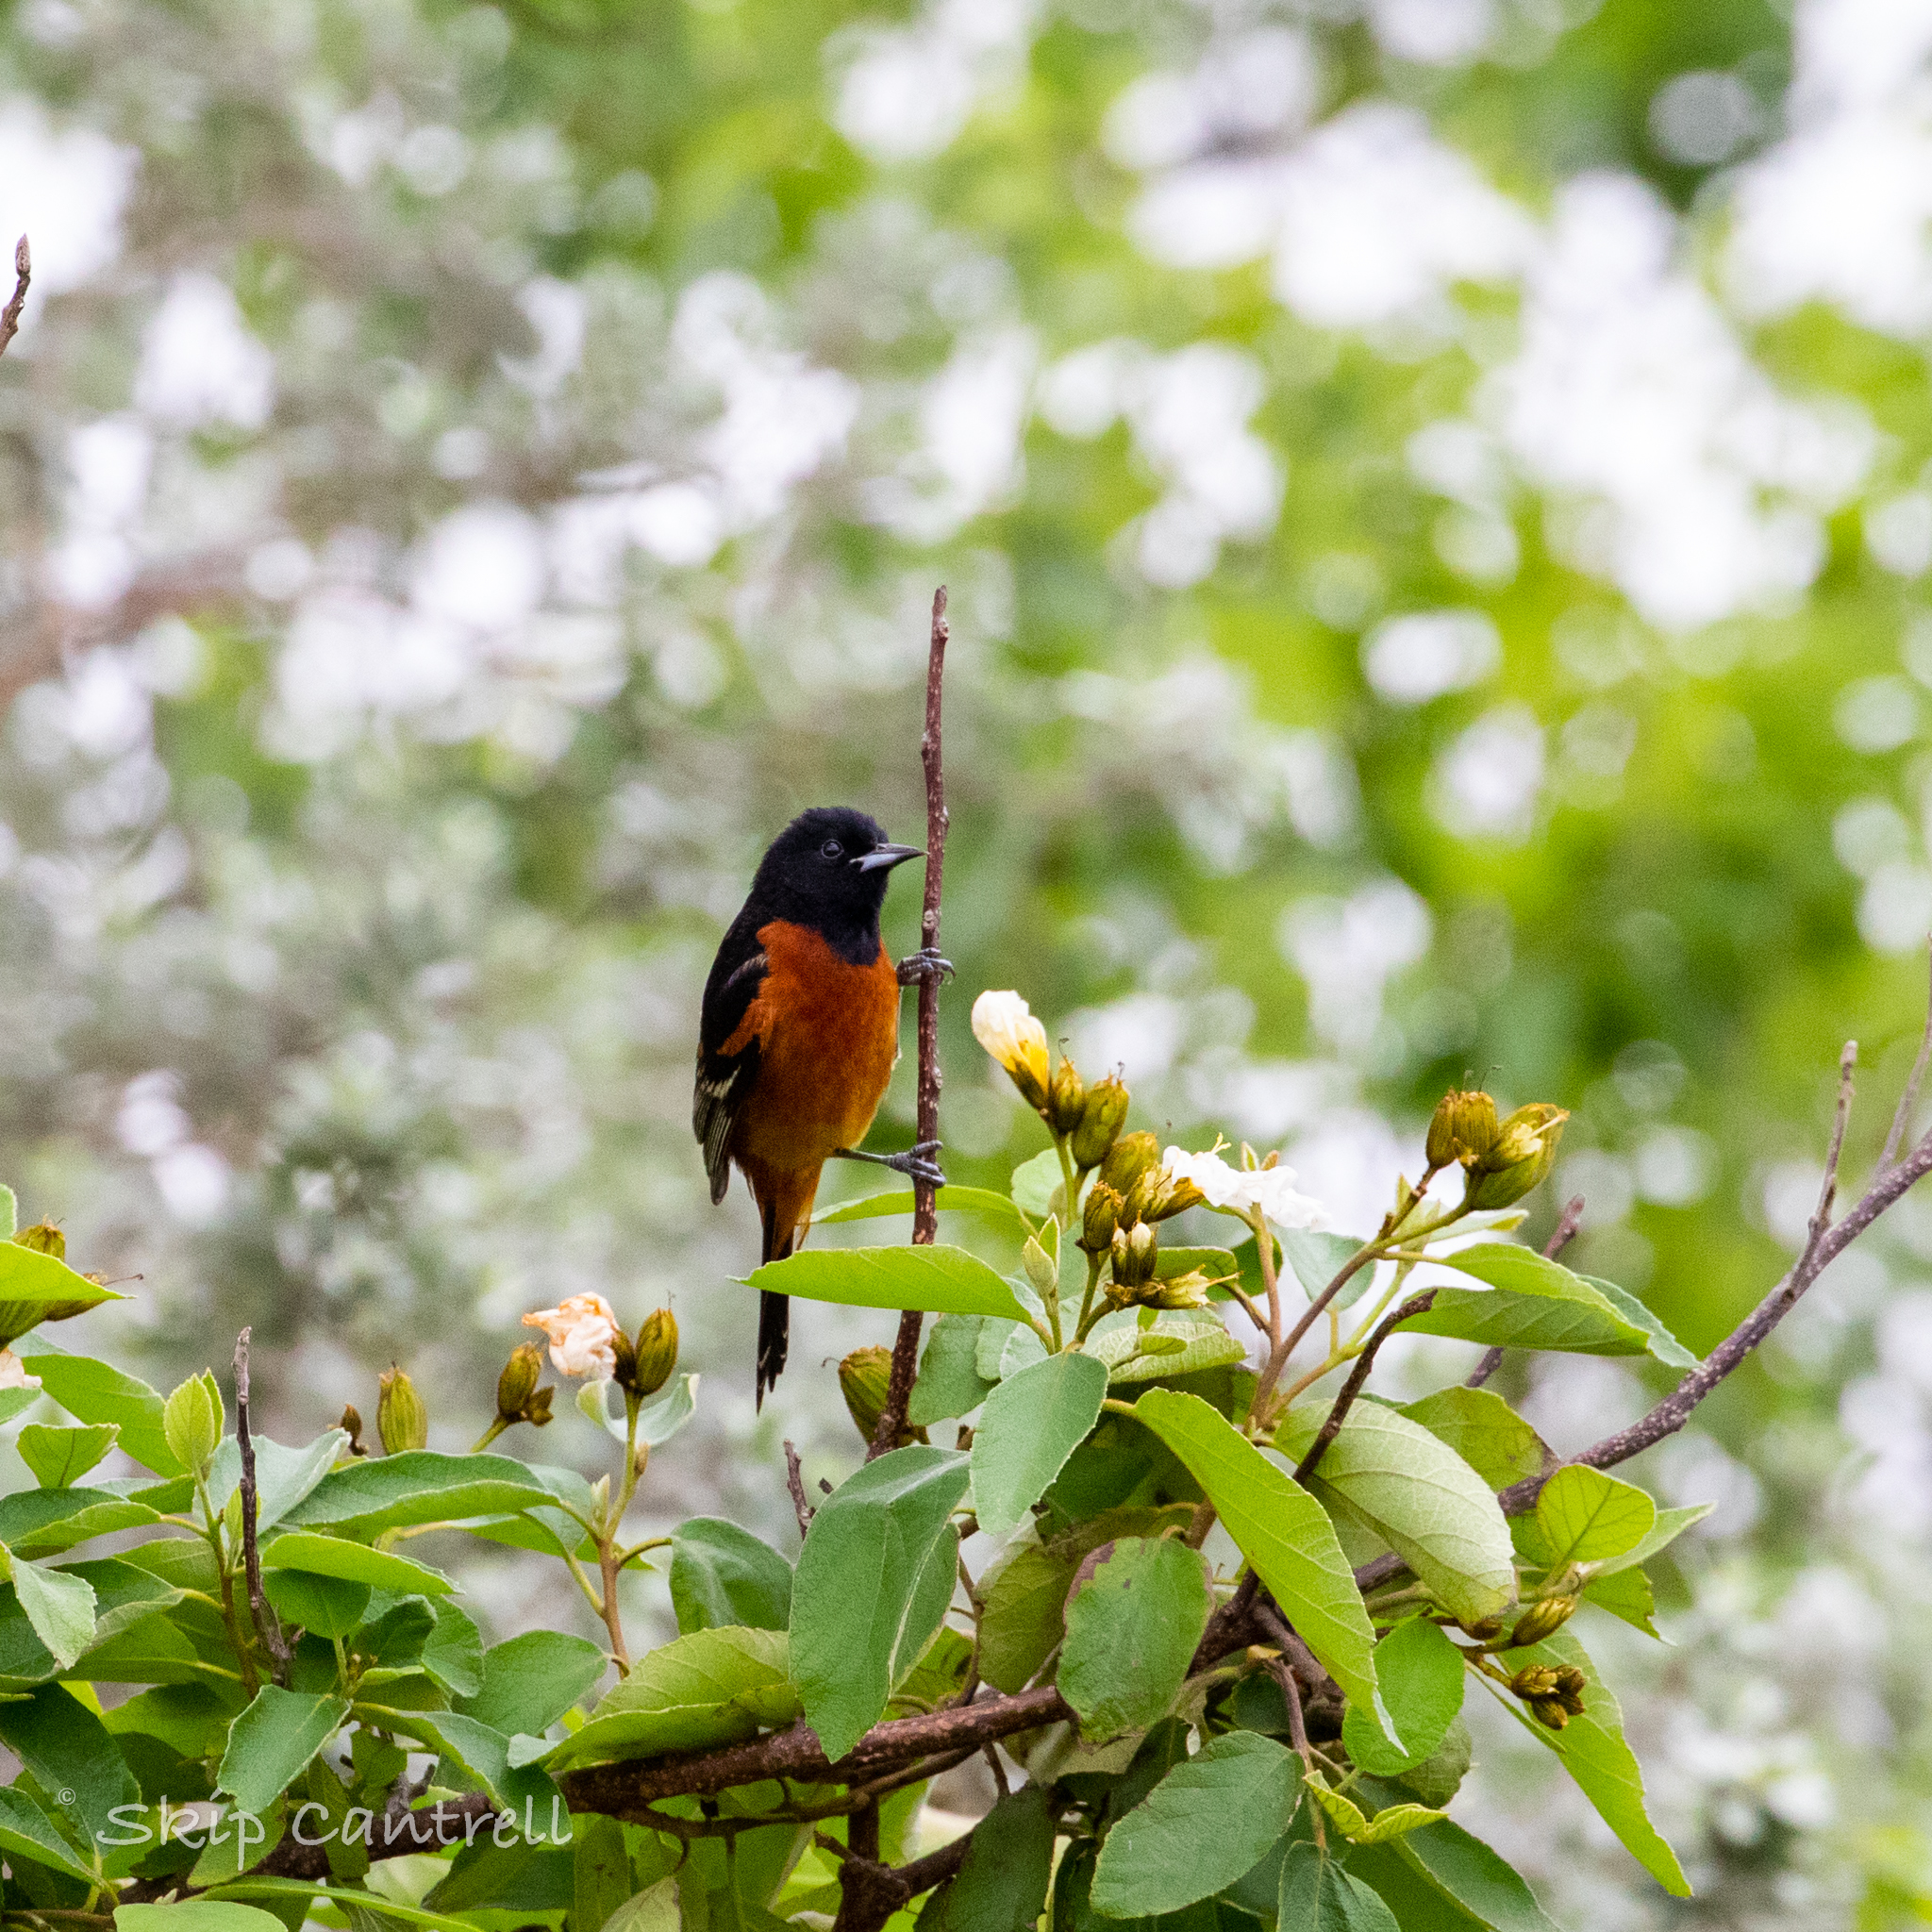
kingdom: Animalia
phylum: Chordata
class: Aves
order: Passeriformes
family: Icteridae
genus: Icterus
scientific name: Icterus spurius
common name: Orchard oriole
